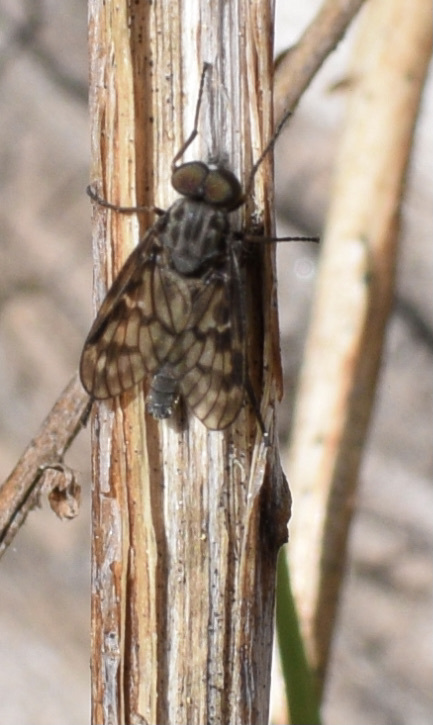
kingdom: Animalia
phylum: Arthropoda
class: Insecta
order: Diptera
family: Rhagionidae
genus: Rhagio
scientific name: Rhagio plumbeus
